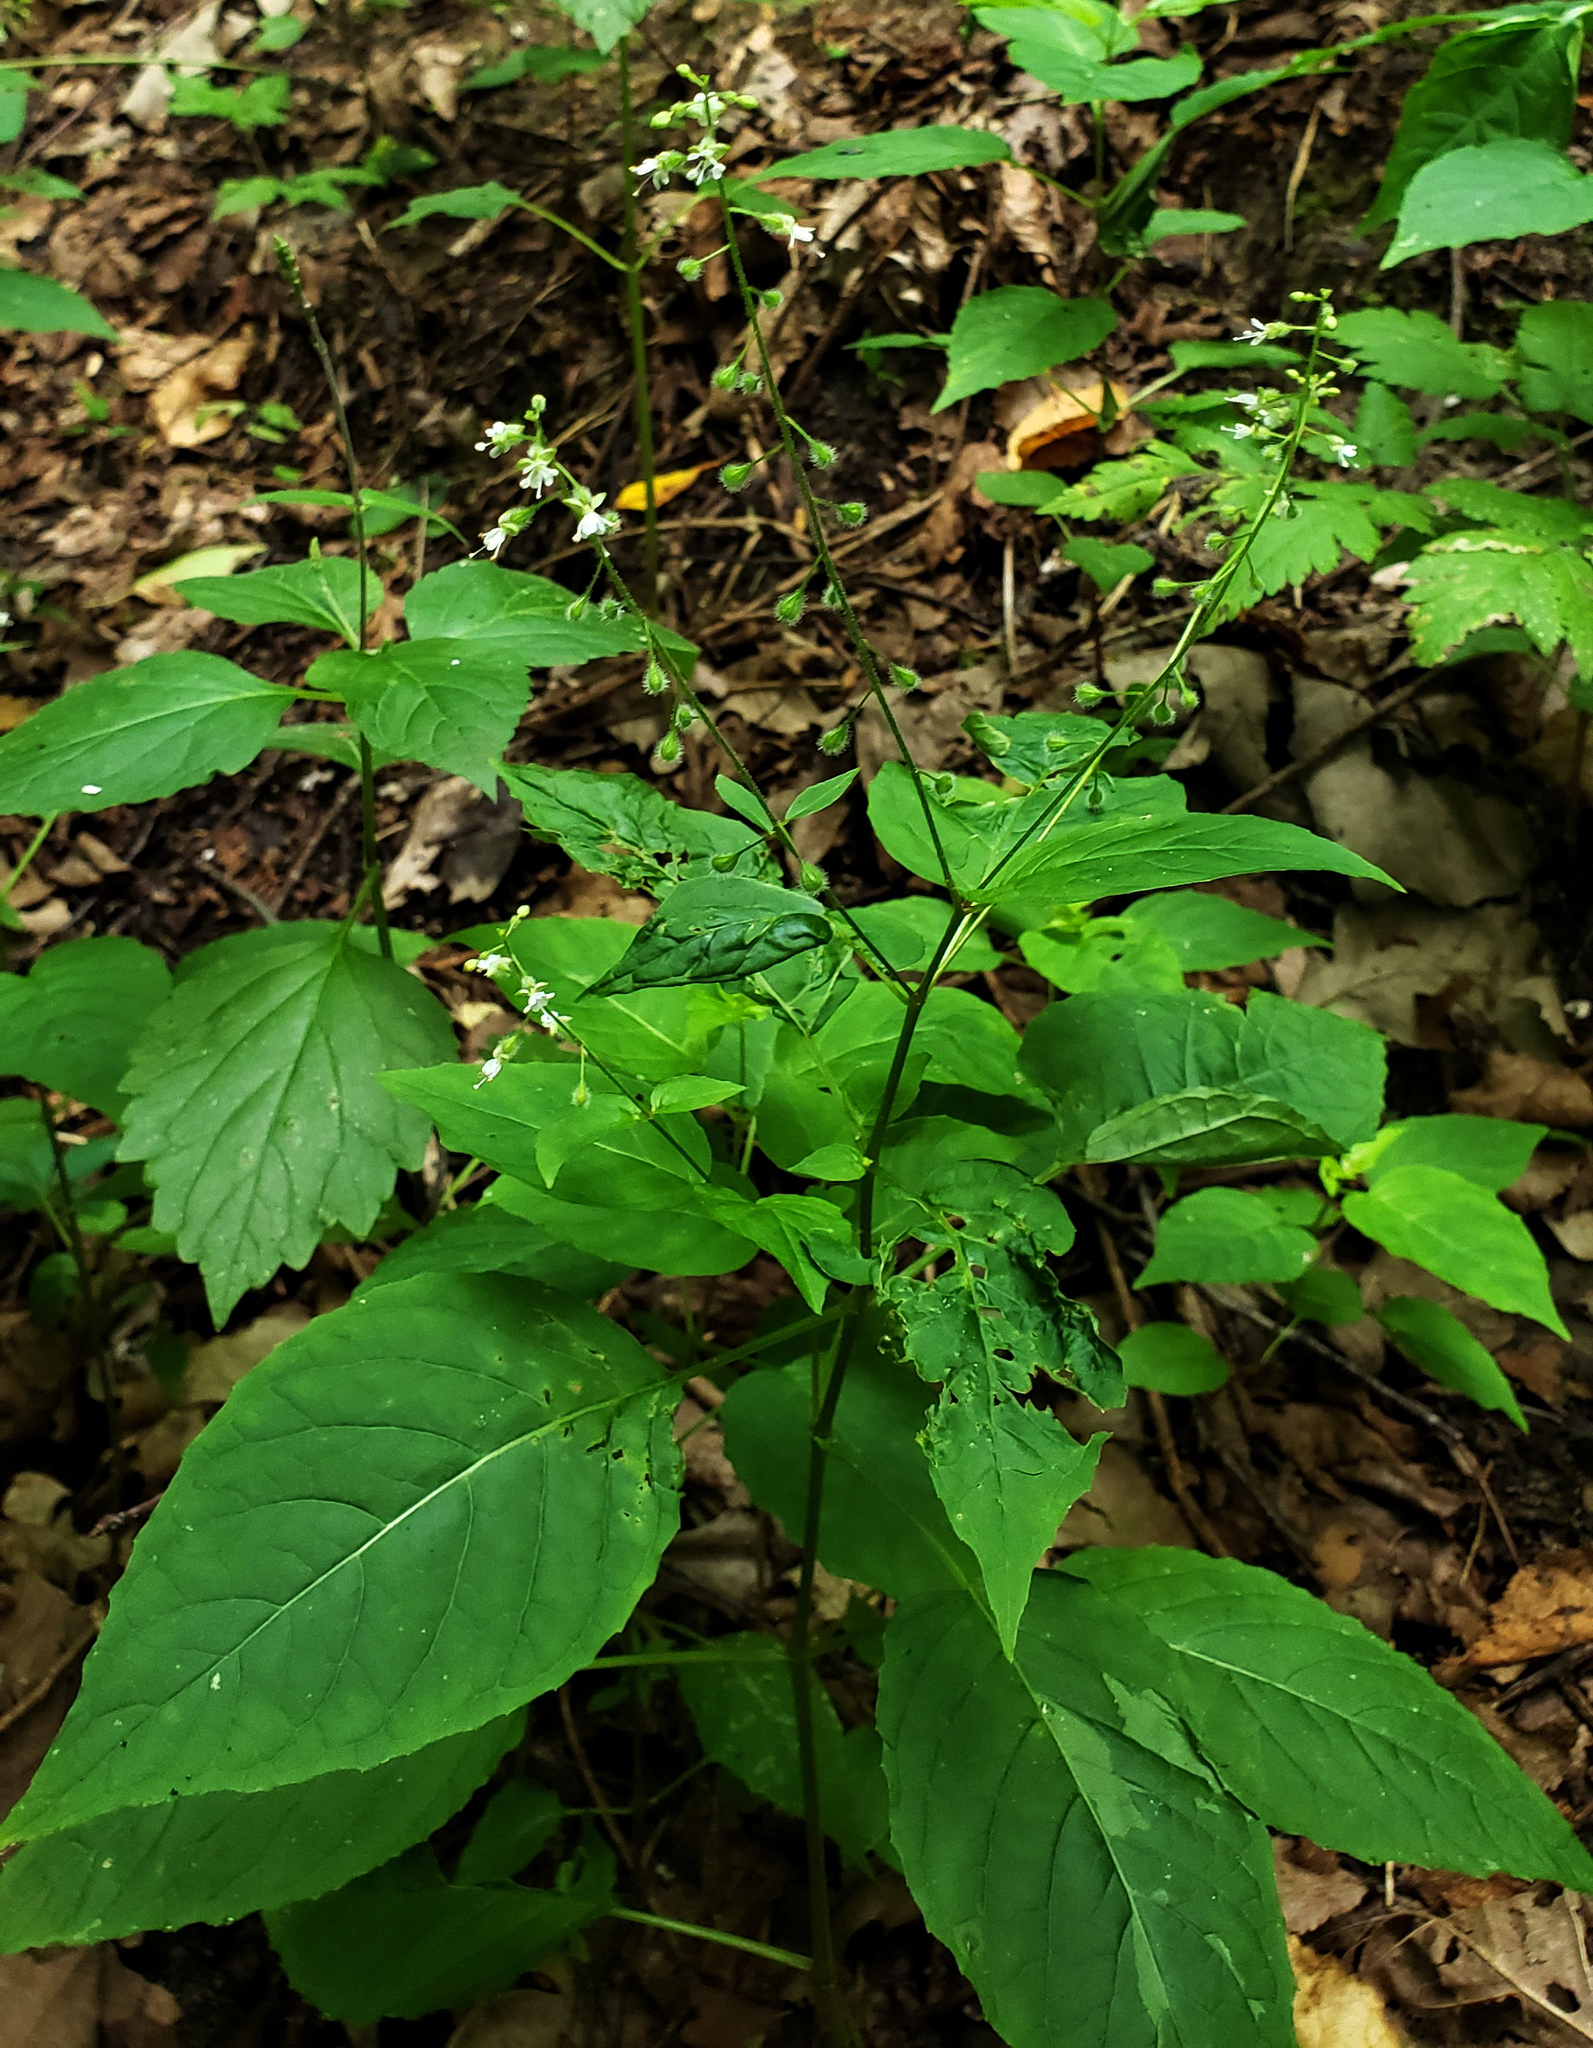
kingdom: Plantae
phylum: Tracheophyta
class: Magnoliopsida
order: Myrtales
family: Onagraceae
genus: Circaea
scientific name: Circaea canadensis
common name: Broad-leaved enchanter's nightshade
